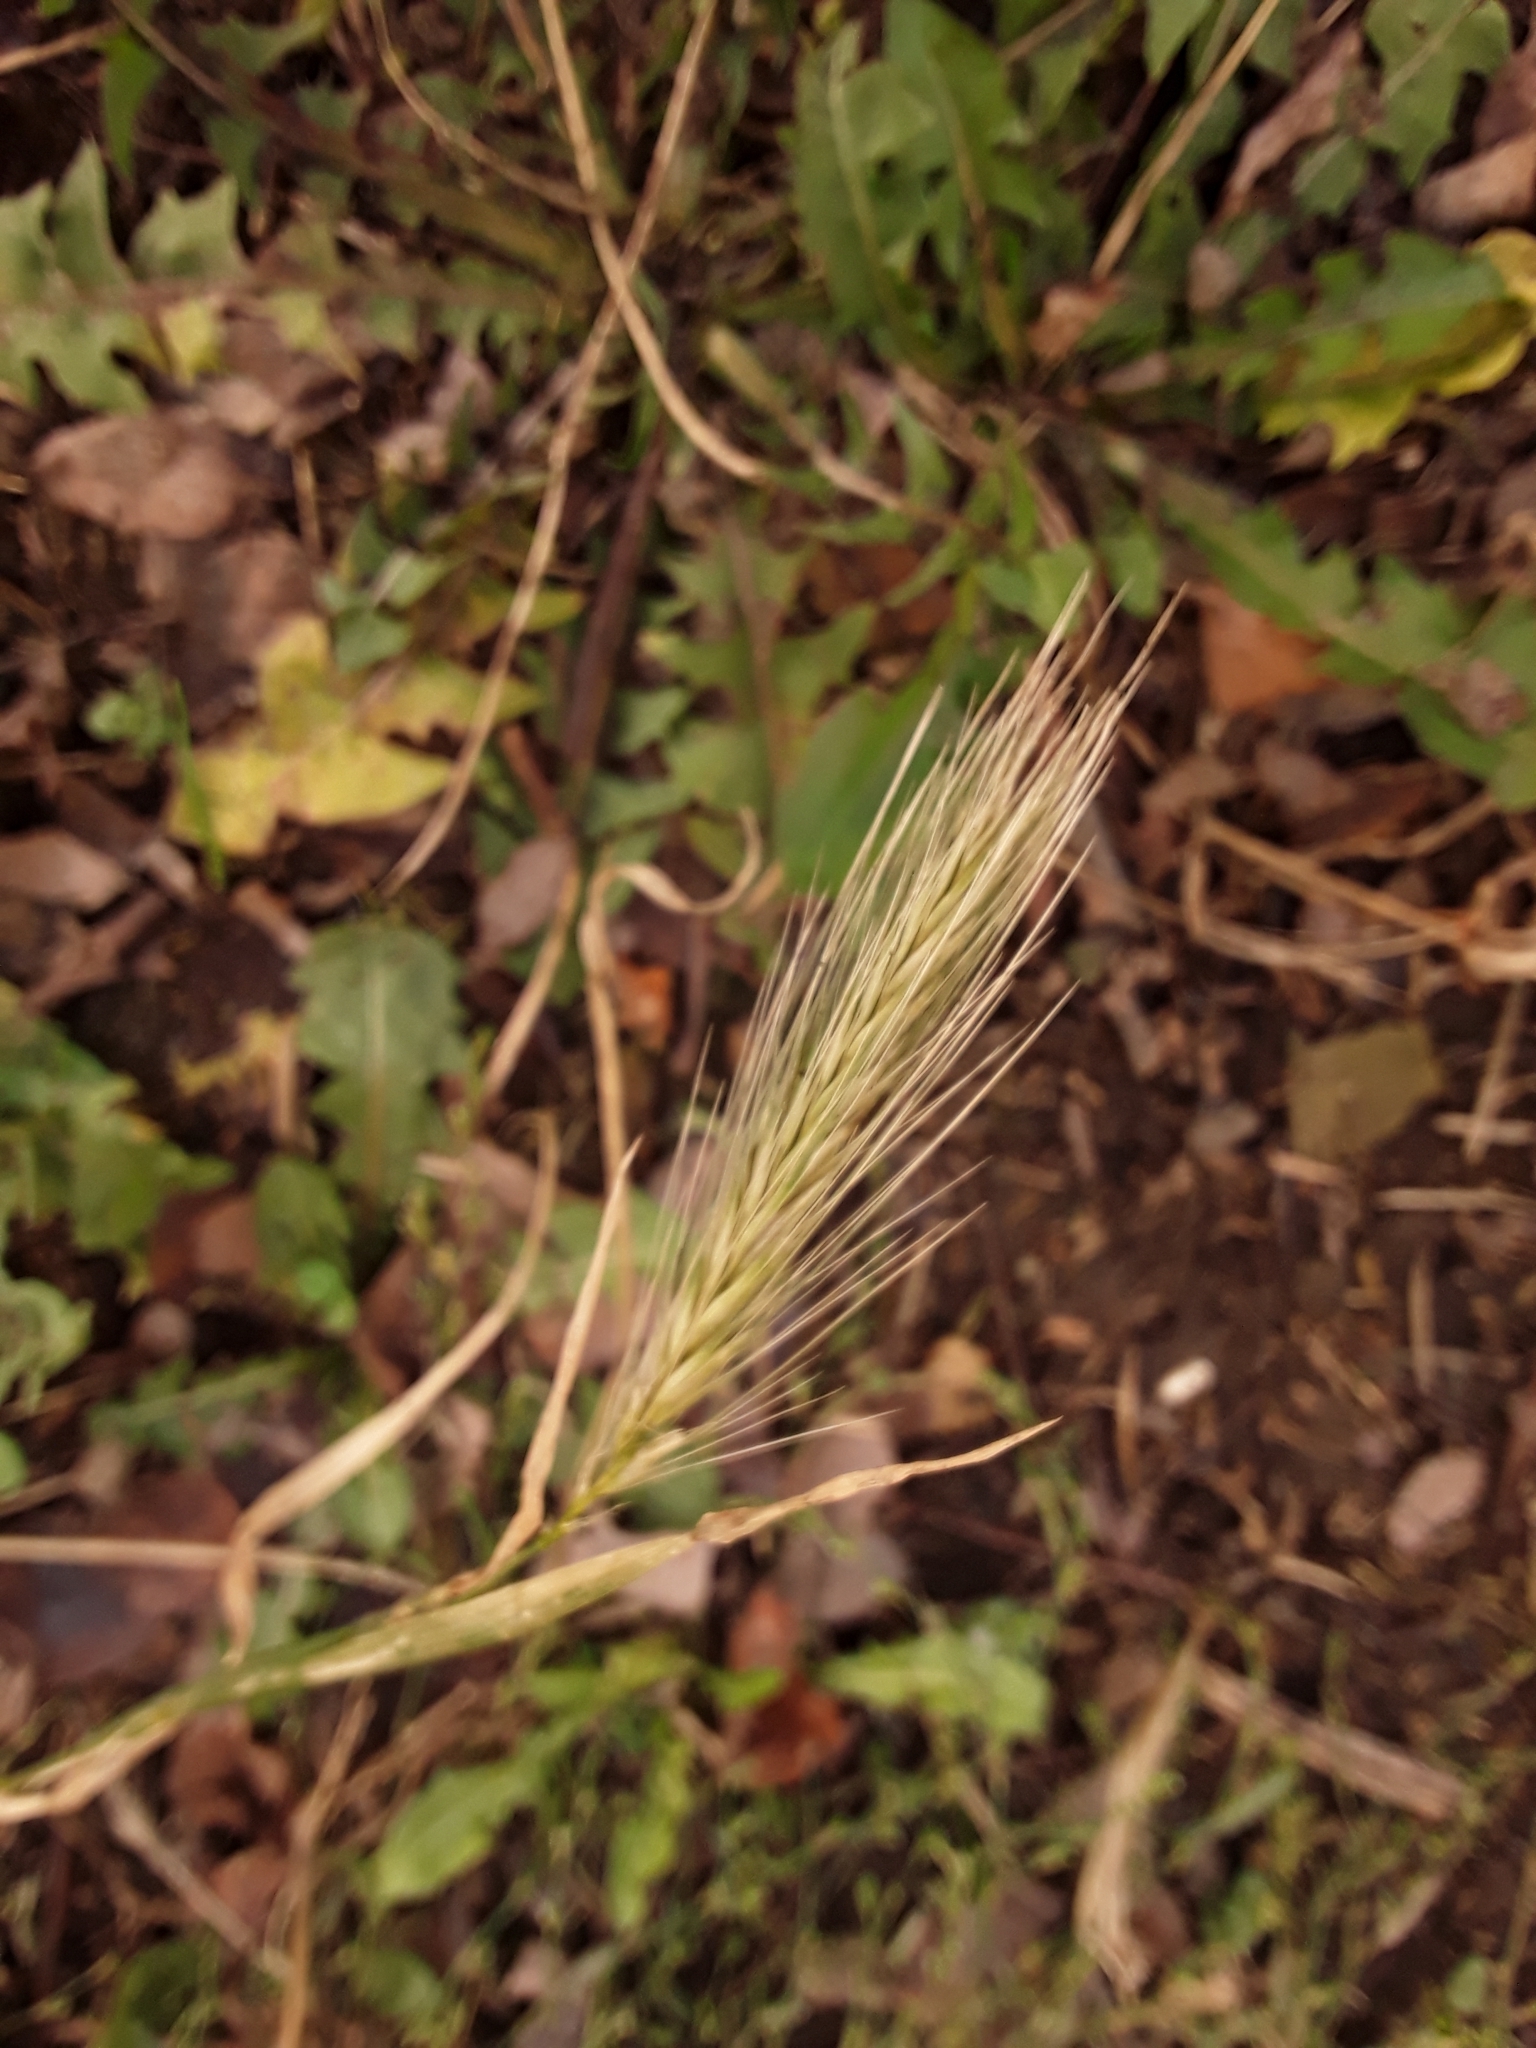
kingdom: Plantae
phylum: Tracheophyta
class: Liliopsida
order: Poales
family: Poaceae
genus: Hordeum
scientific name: Hordeum murinum
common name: Wall barley
